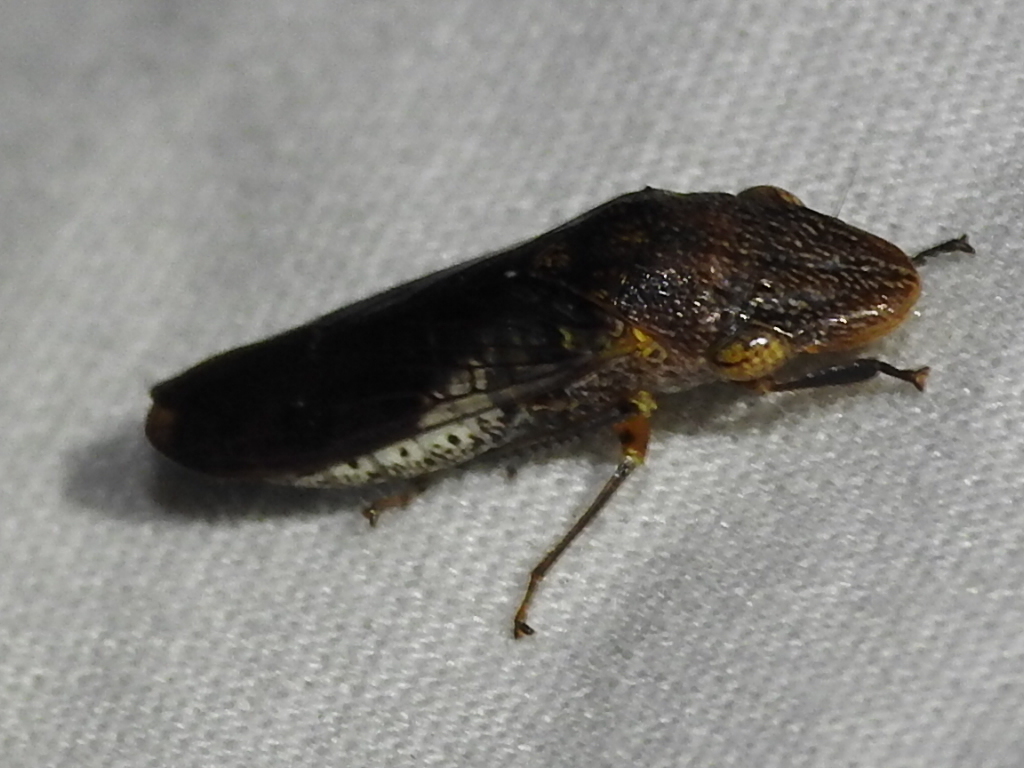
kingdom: Animalia
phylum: Arthropoda
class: Insecta
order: Hemiptera
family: Cicadellidae
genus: Homalodisca
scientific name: Homalodisca vitripennis
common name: Glassy-winged sharpshooter
